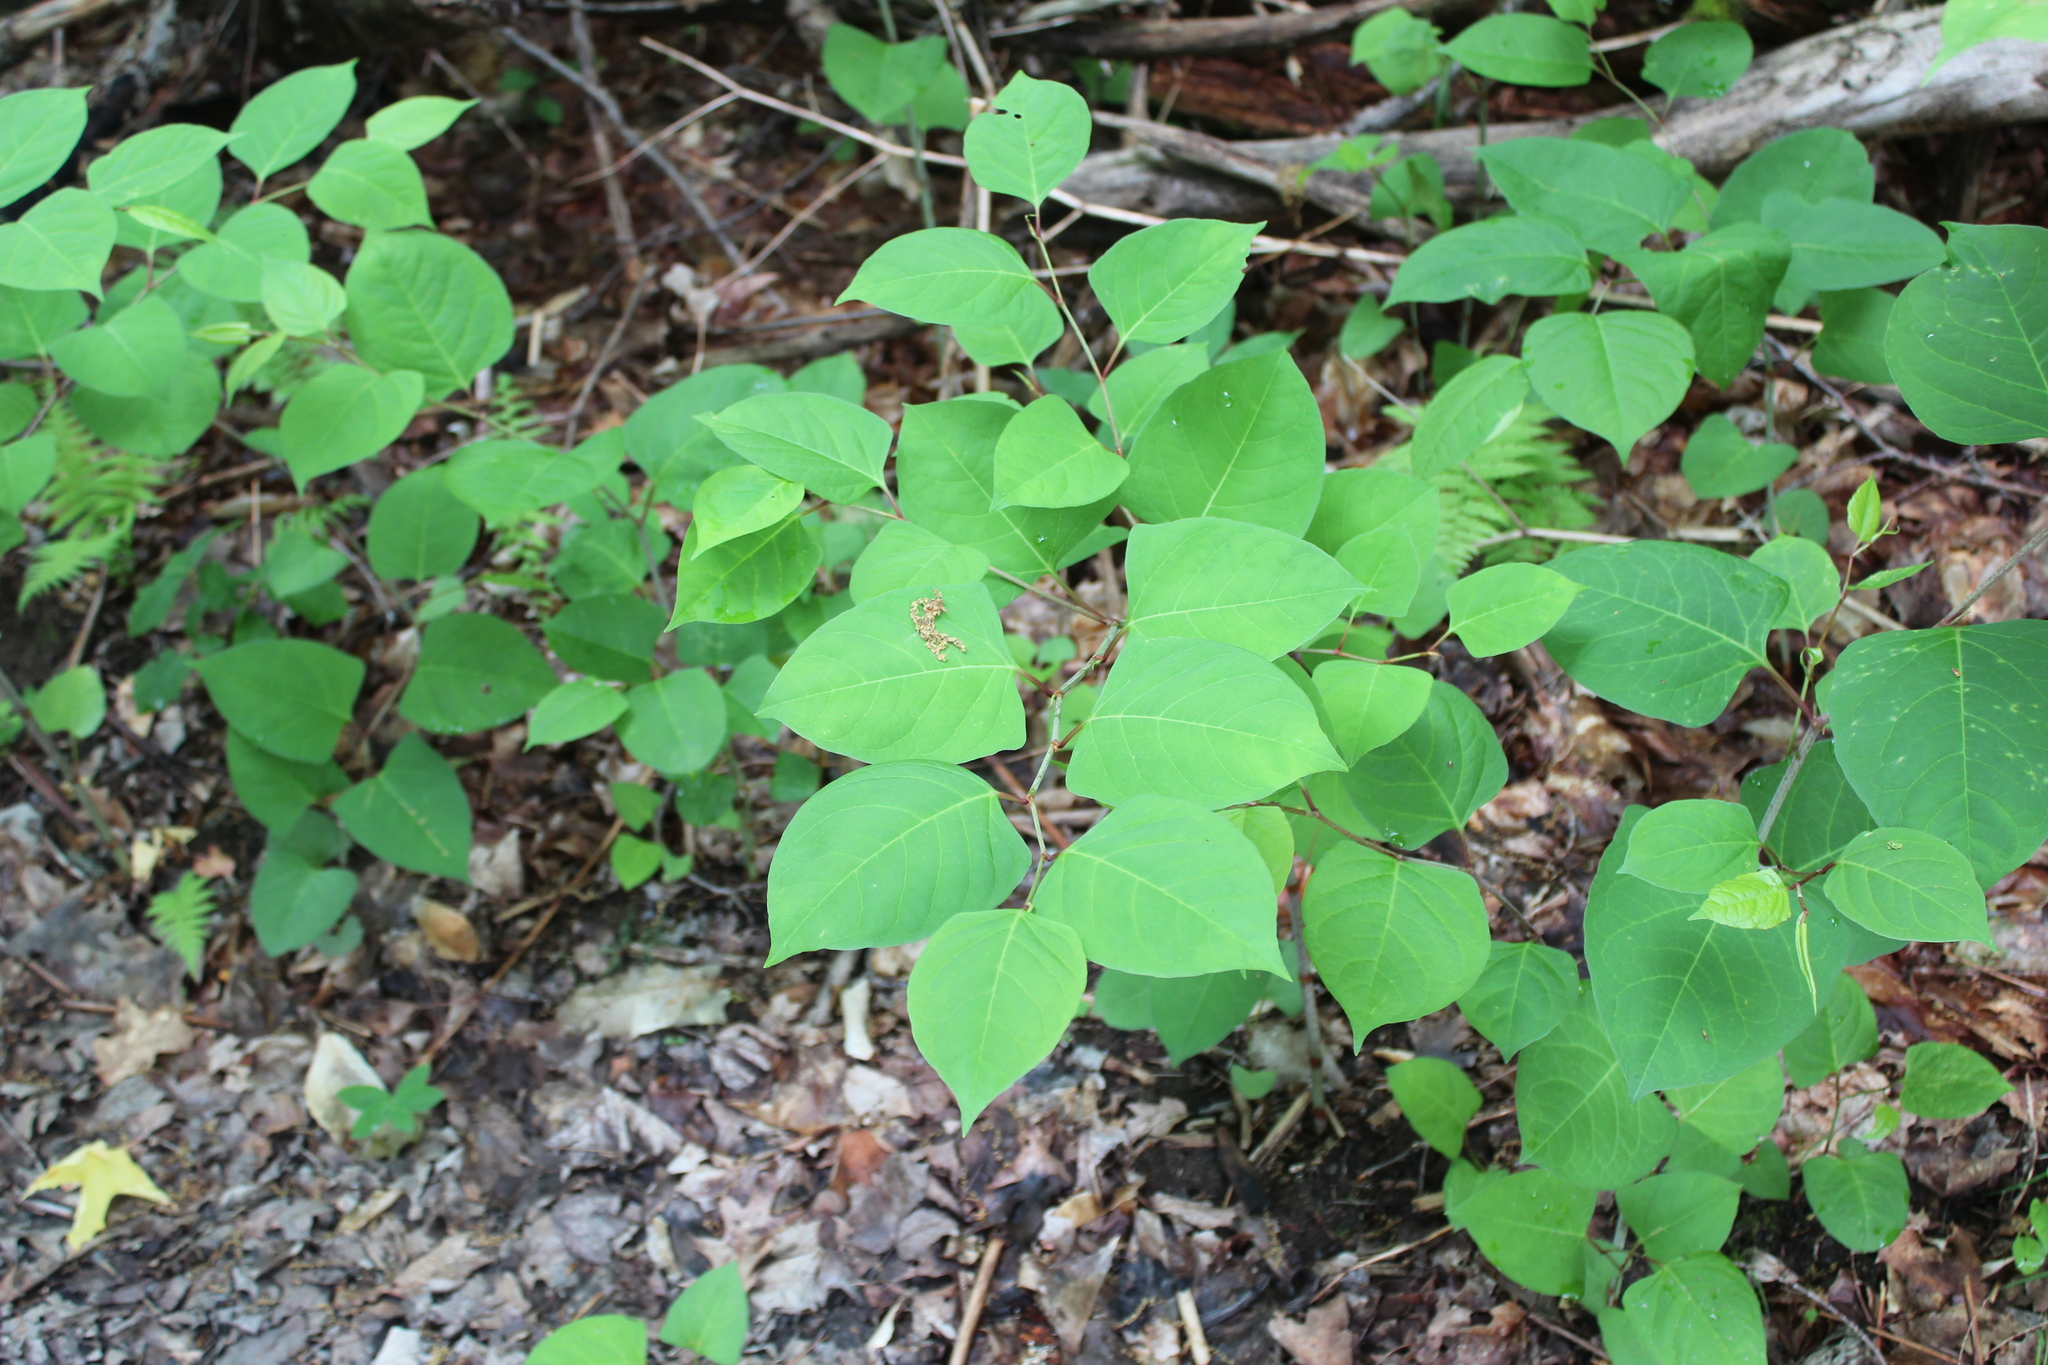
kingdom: Plantae
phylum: Tracheophyta
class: Magnoliopsida
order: Caryophyllales
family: Polygonaceae
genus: Reynoutria
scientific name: Reynoutria japonica
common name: Japanese knotweed
